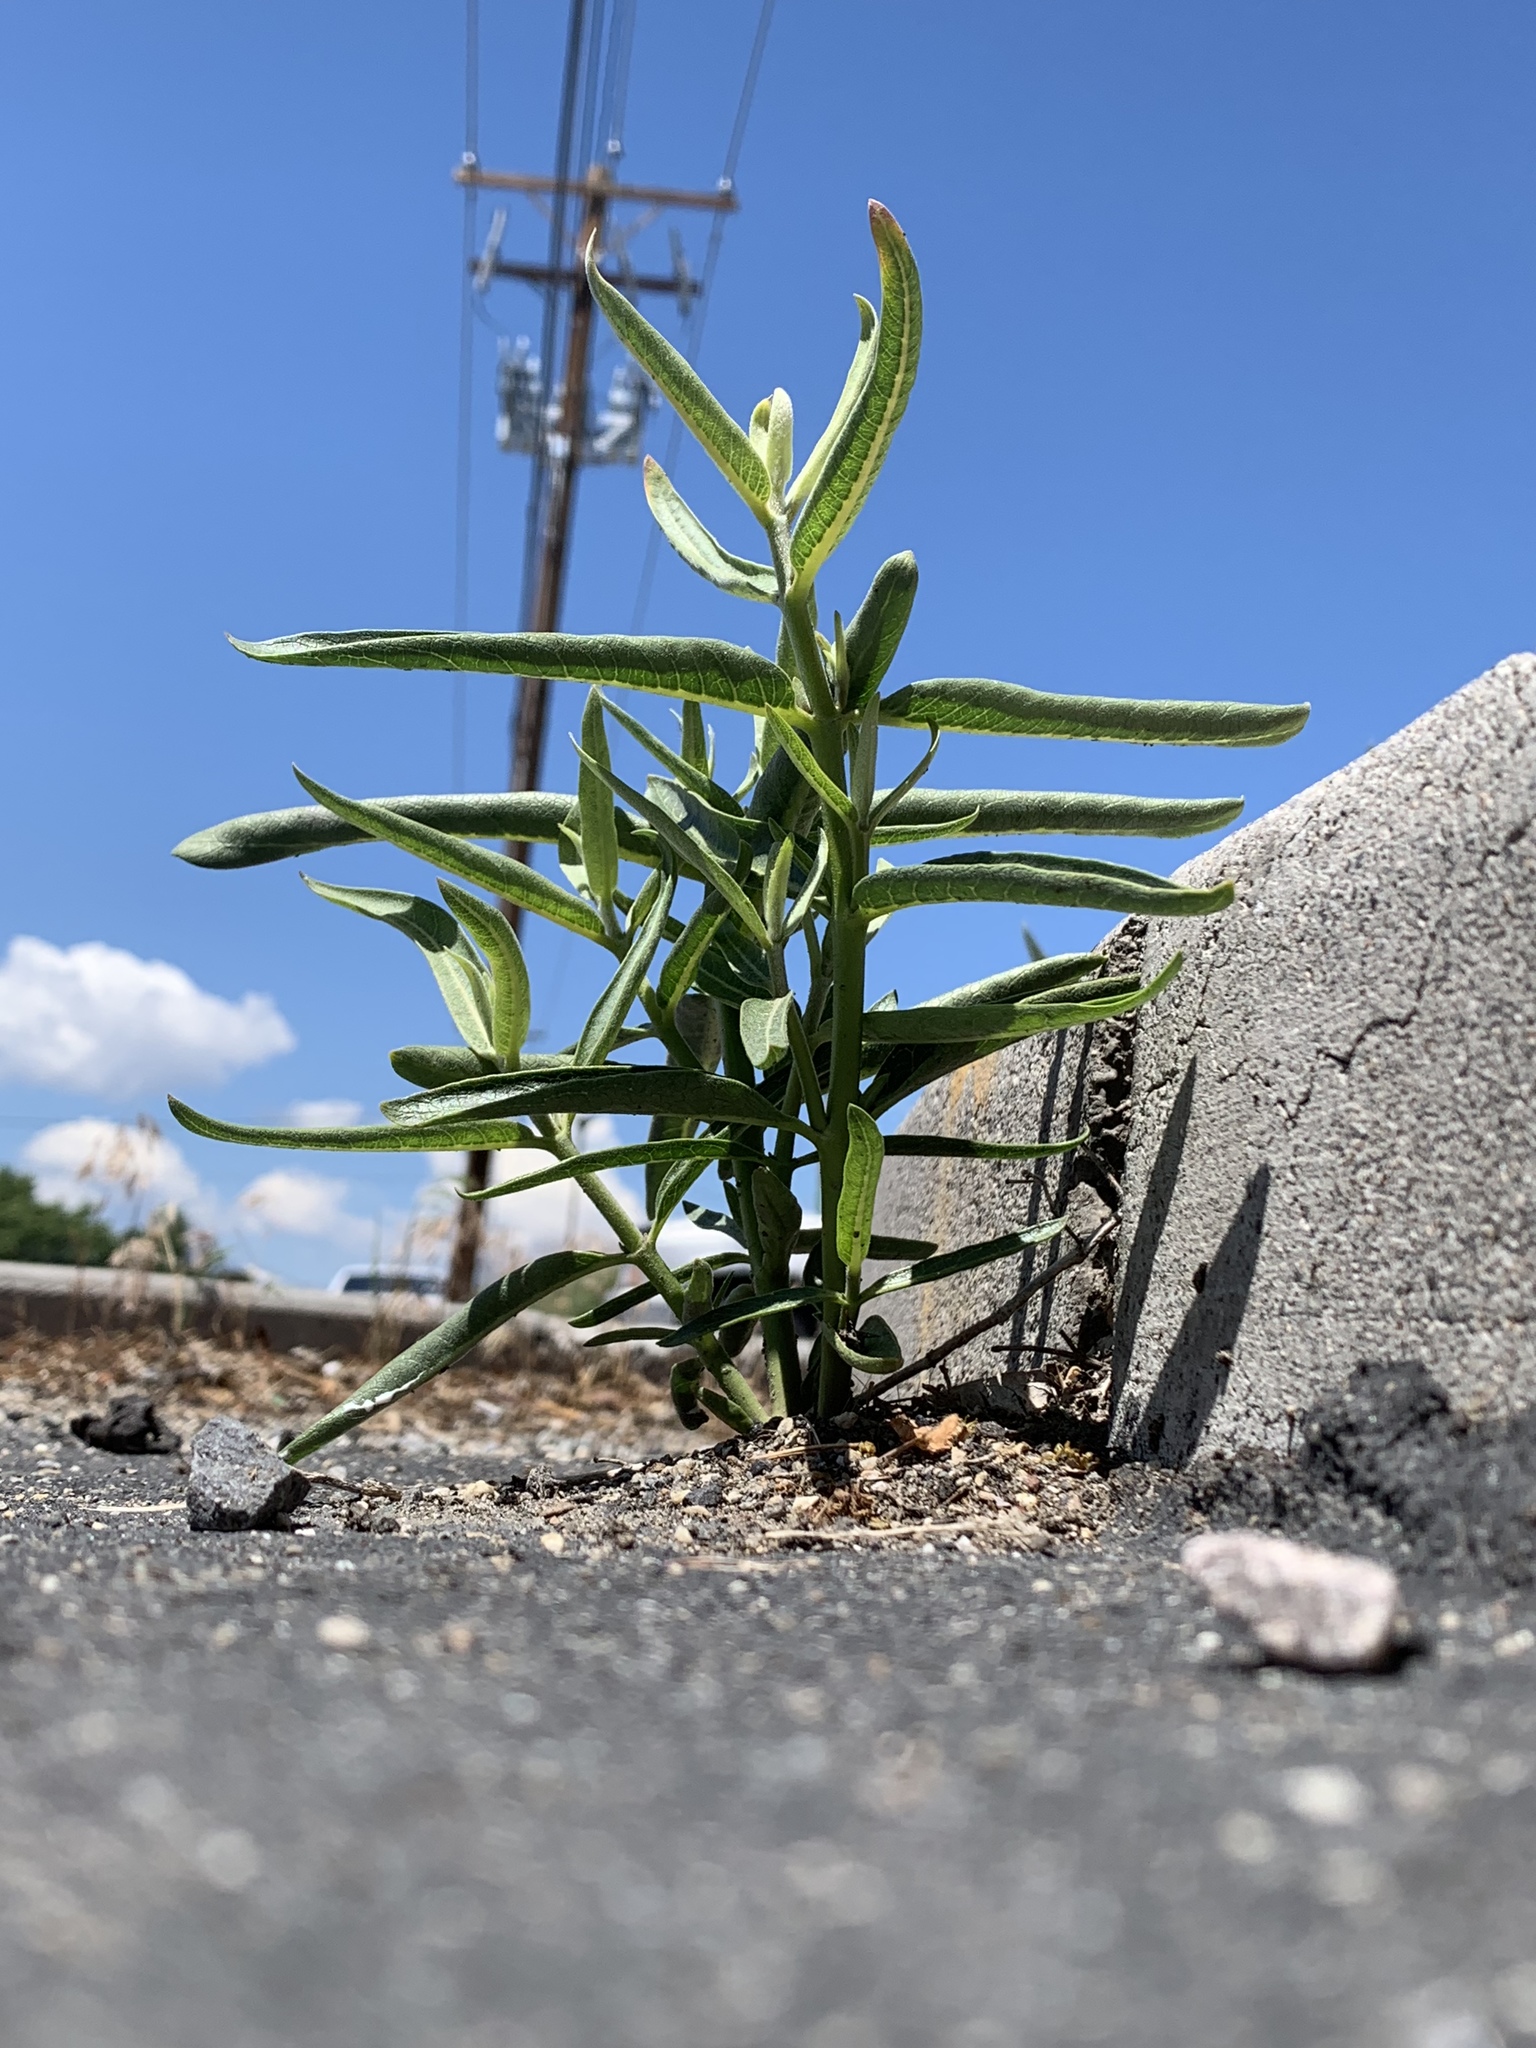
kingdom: Plantae
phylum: Tracheophyta
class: Magnoliopsida
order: Gentianales
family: Apocynaceae
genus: Asclepias
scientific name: Asclepias speciosa
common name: Showy milkweed
